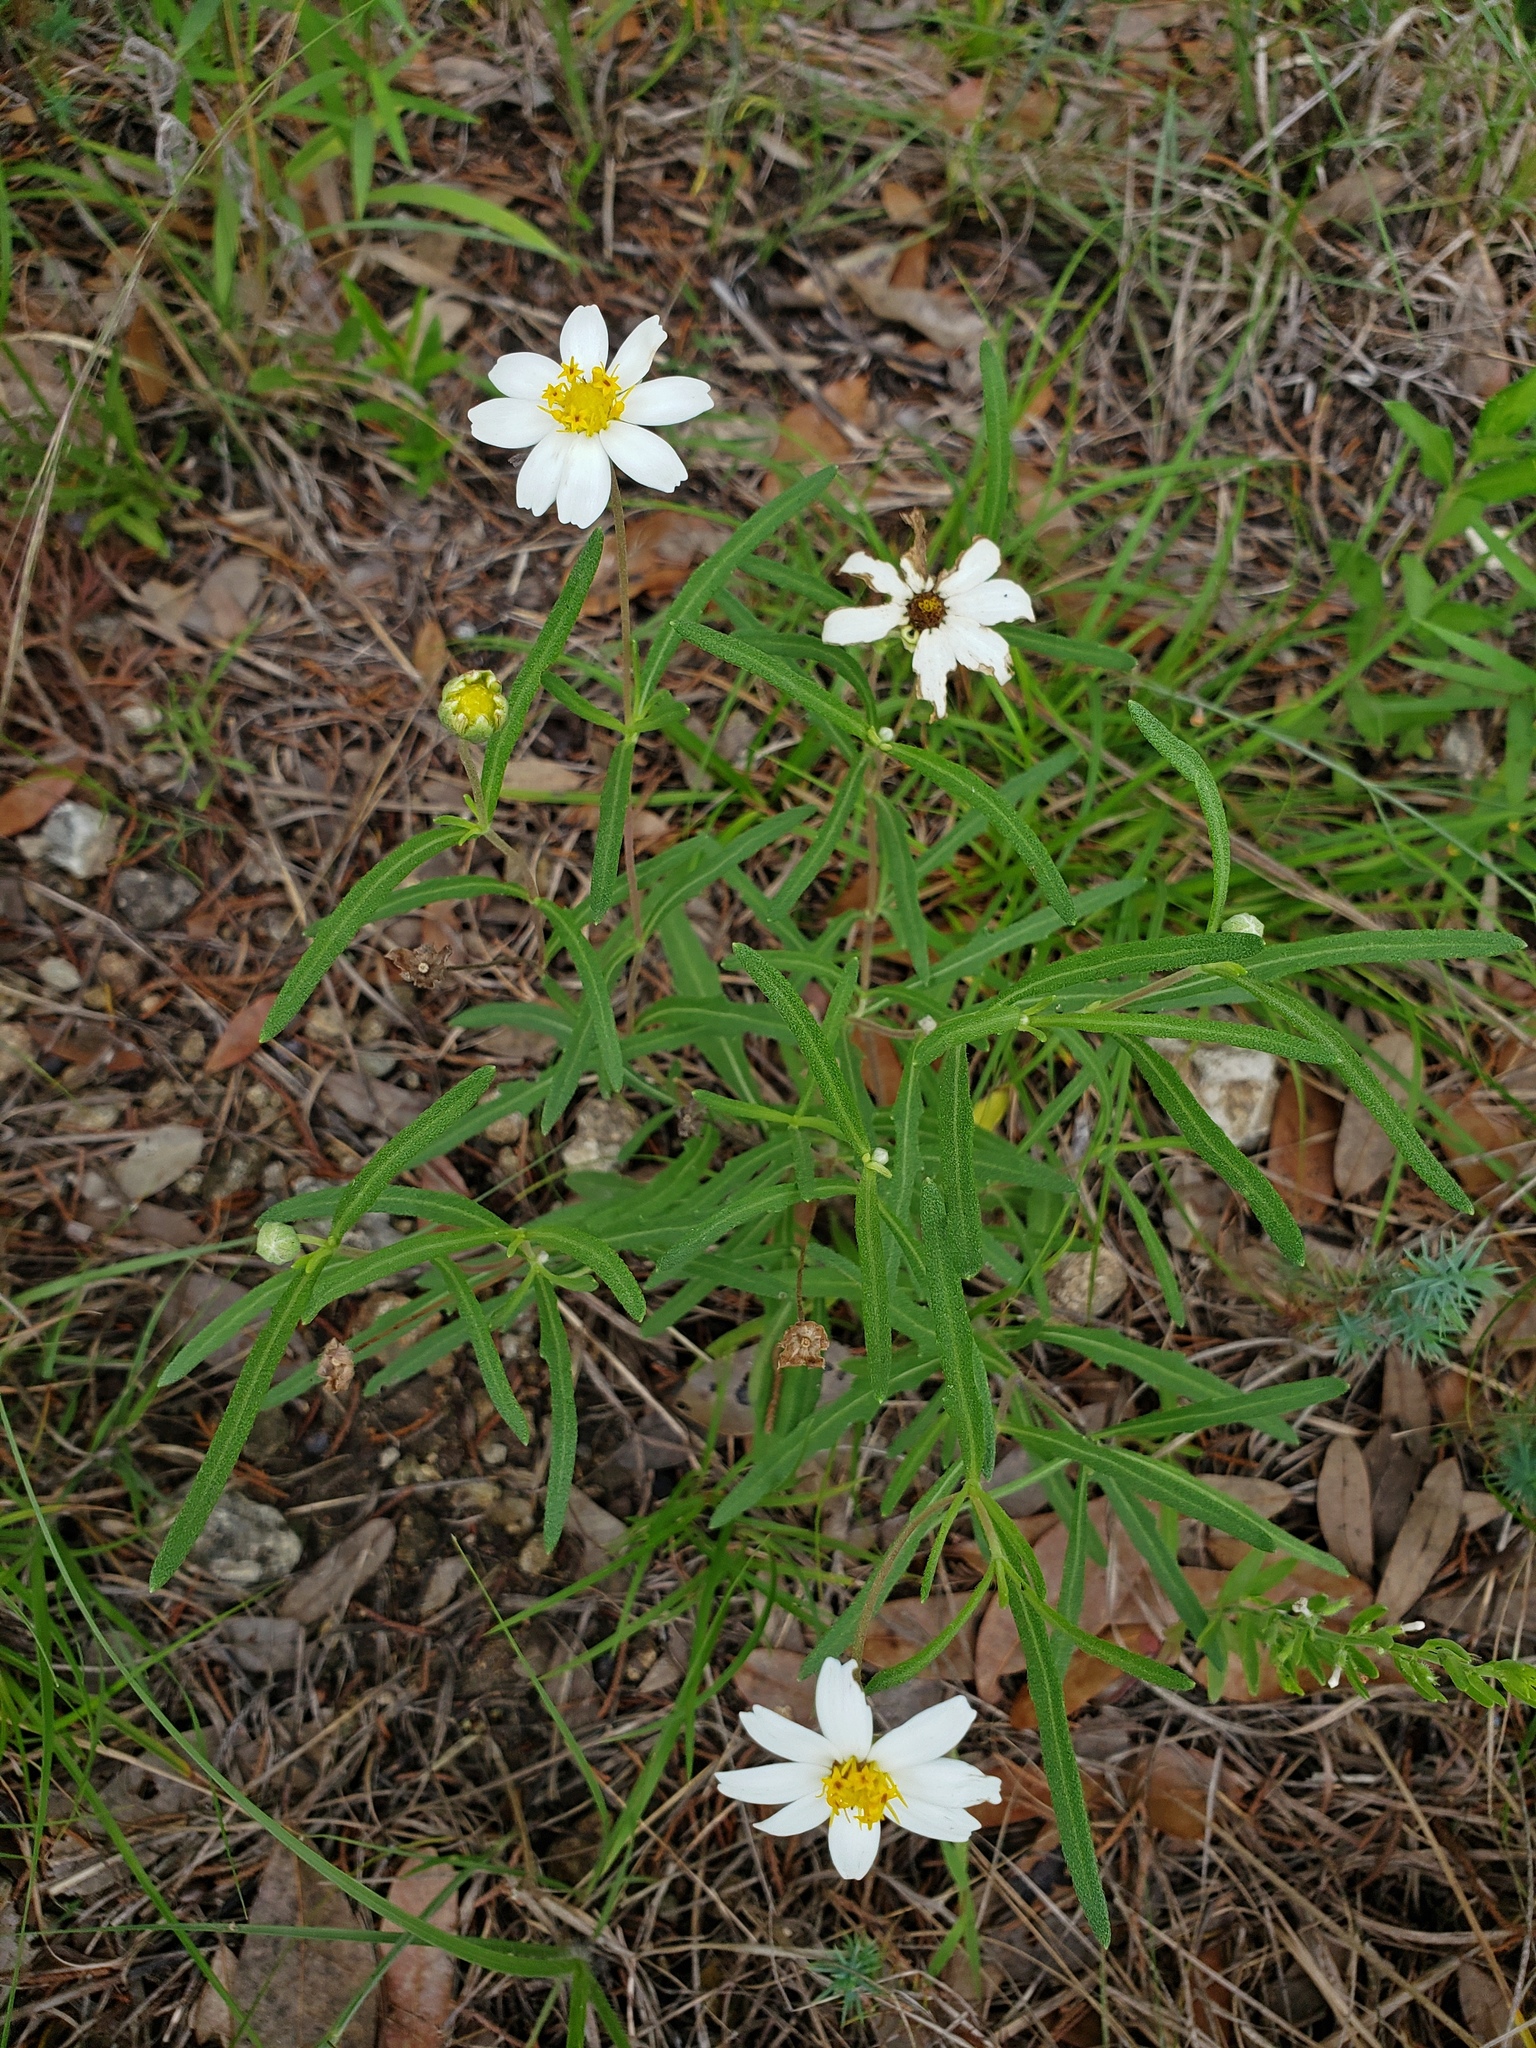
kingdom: Plantae
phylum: Tracheophyta
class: Magnoliopsida
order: Asterales
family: Asteraceae
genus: Melampodium
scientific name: Melampodium leucanthum
